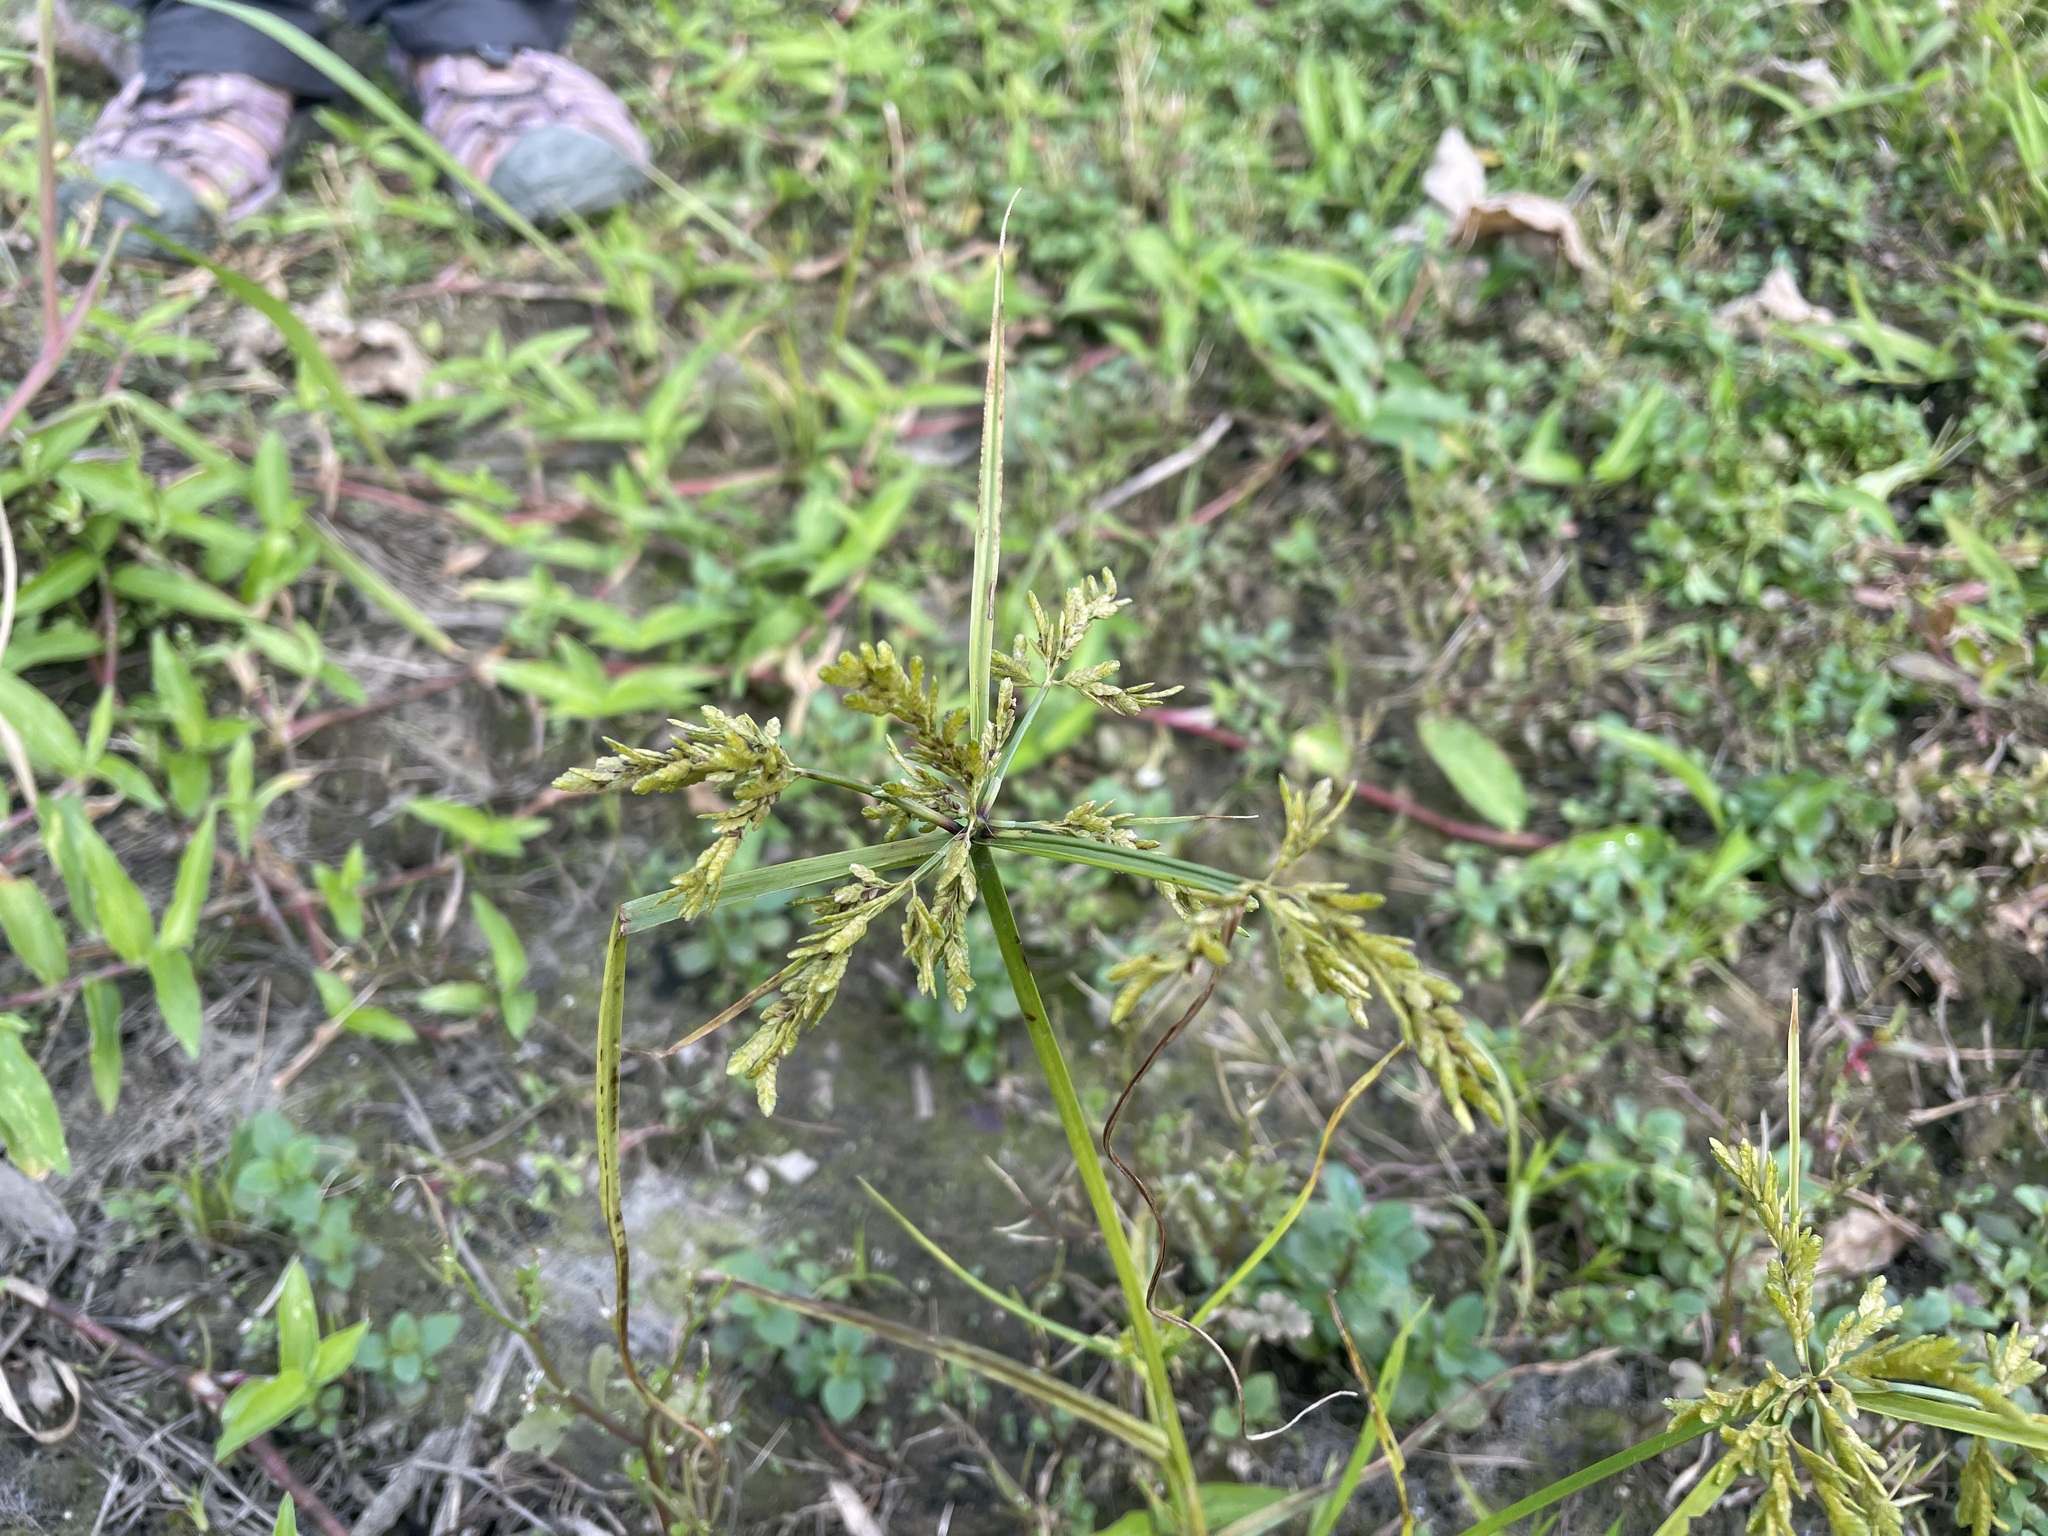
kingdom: Plantae
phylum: Tracheophyta
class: Liliopsida
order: Poales
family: Cyperaceae
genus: Cyperus
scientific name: Cyperus iria
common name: Ricefield flatsedge
